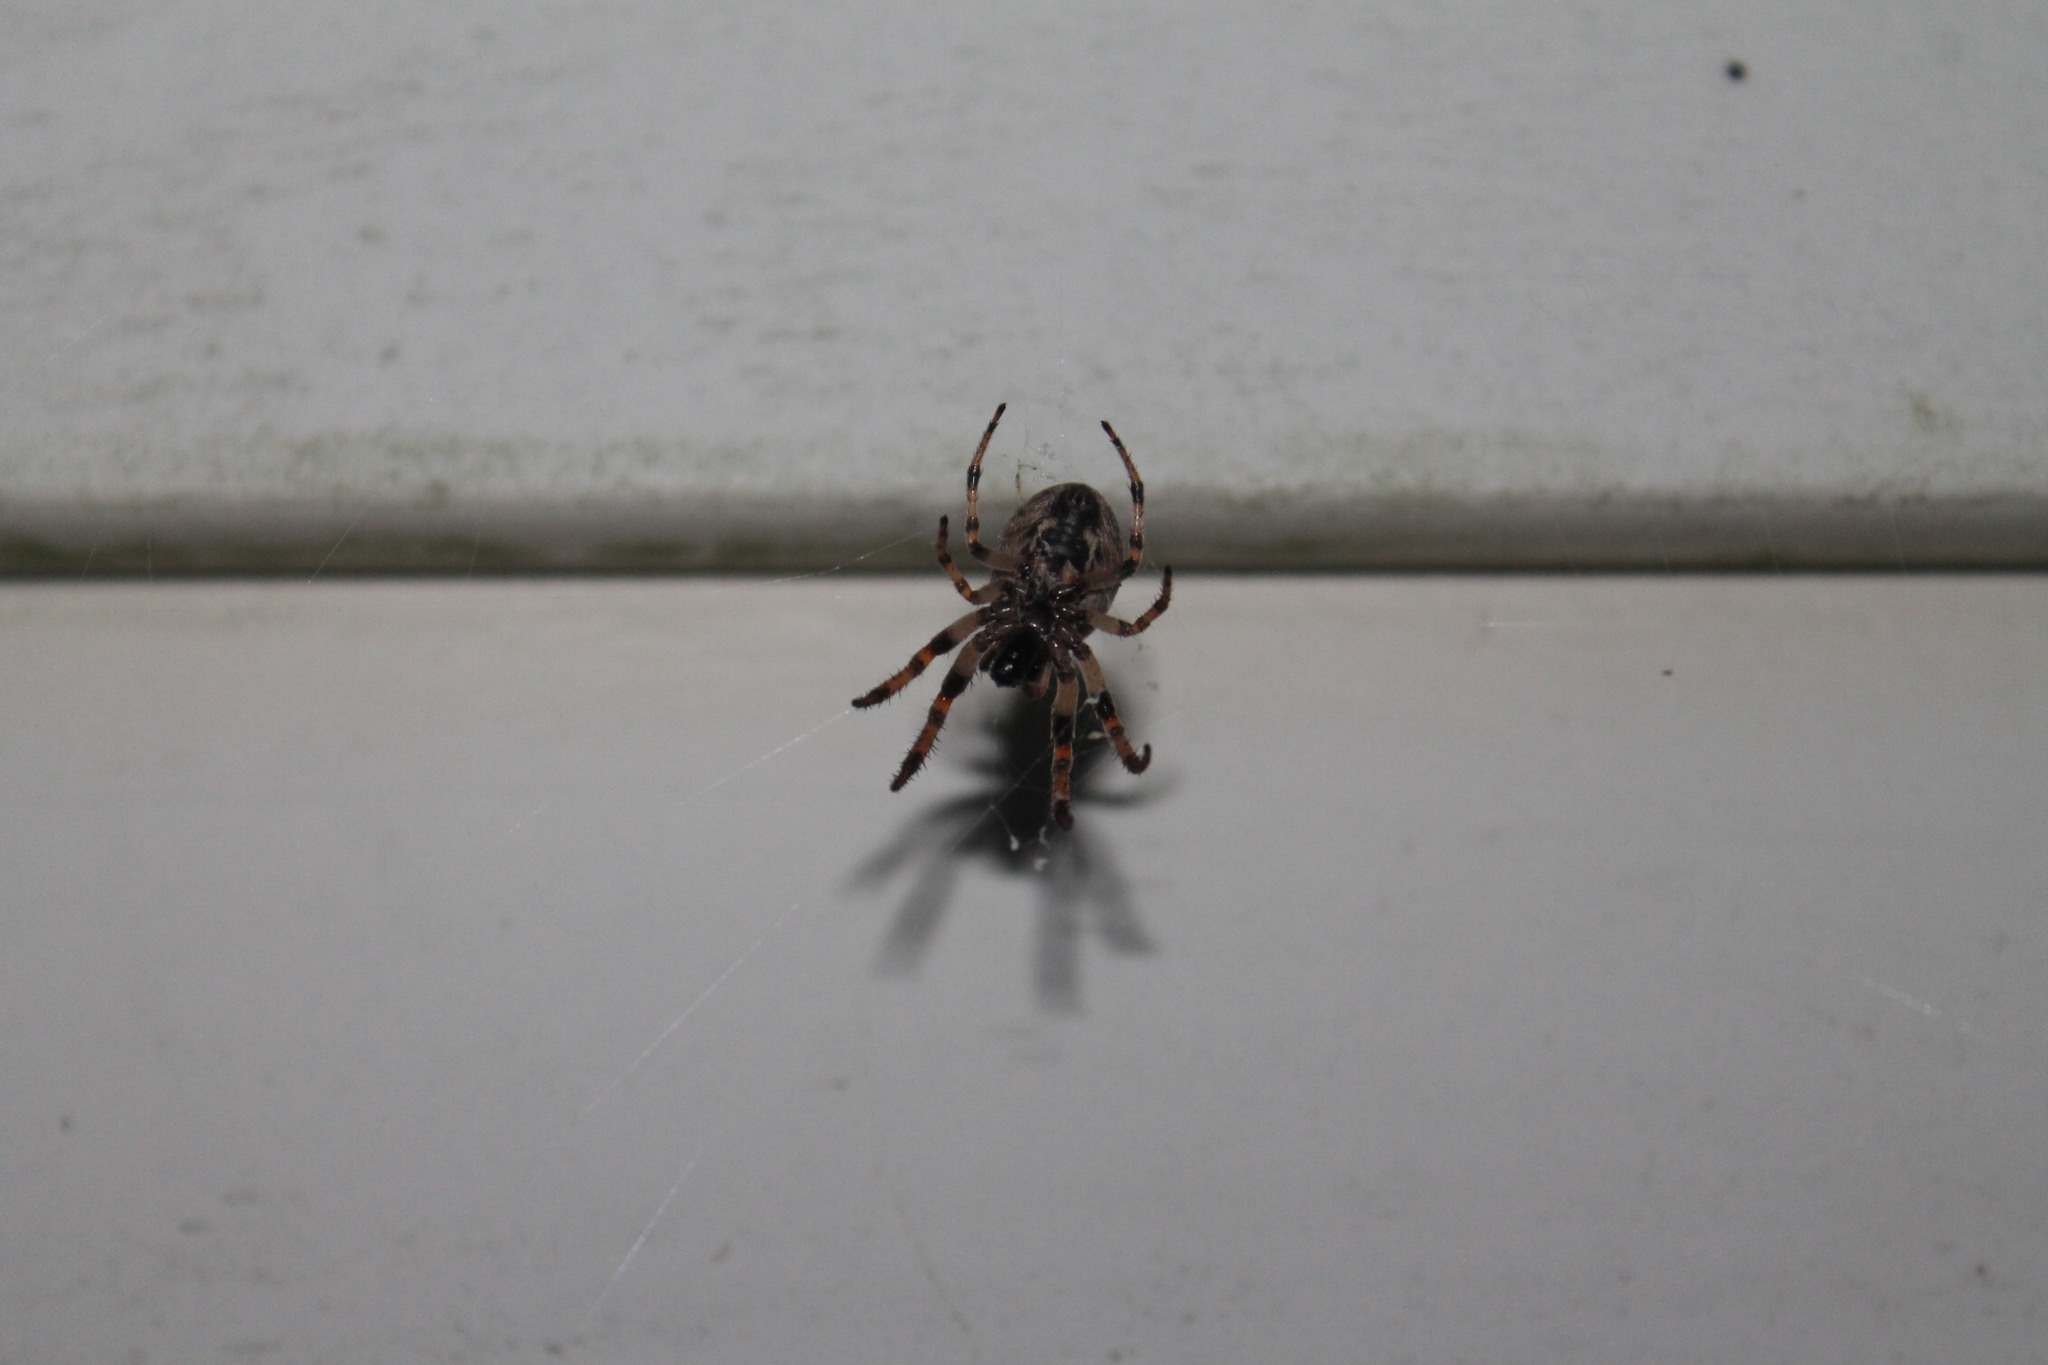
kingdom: Animalia
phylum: Arthropoda
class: Arachnida
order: Araneae
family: Araneidae
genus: Larinioides
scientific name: Larinioides cornutus
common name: Furrow orbweaver
